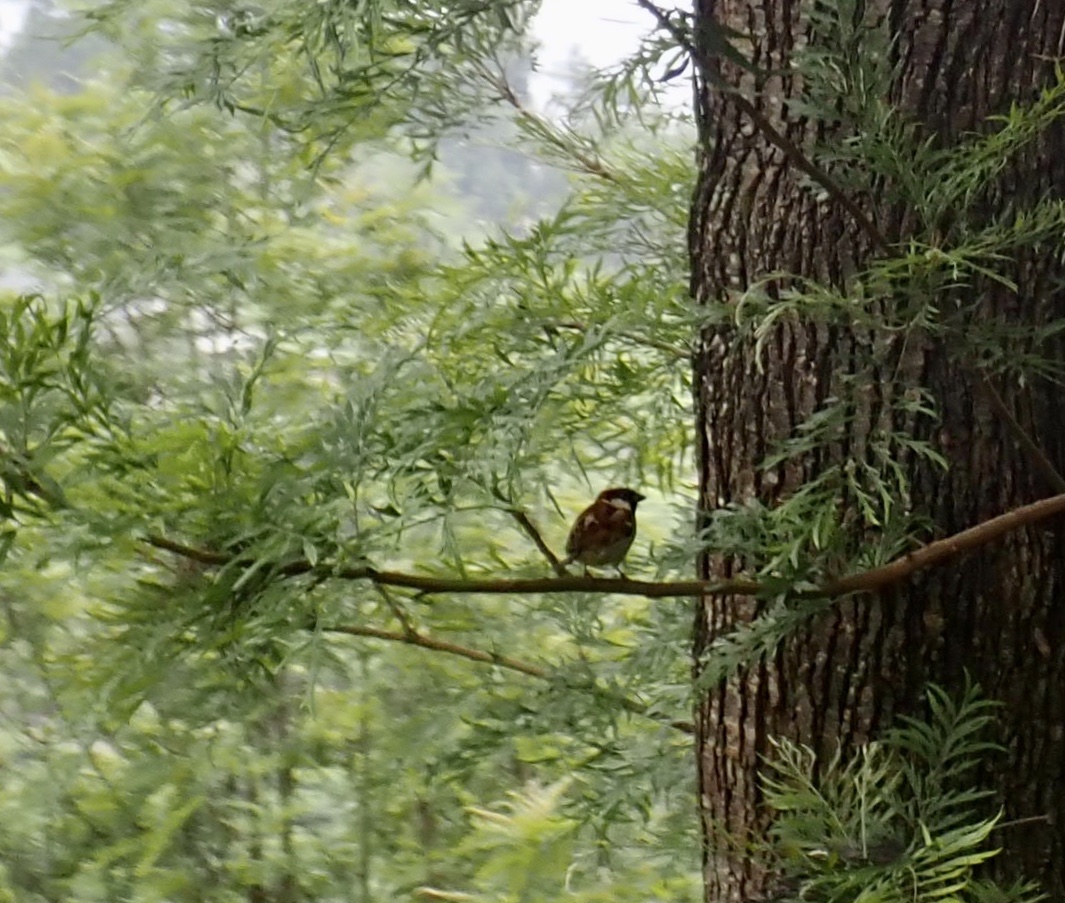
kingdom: Animalia
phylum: Chordata
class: Aves
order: Passeriformes
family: Passeridae
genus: Passer
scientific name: Passer domesticus
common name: House sparrow
